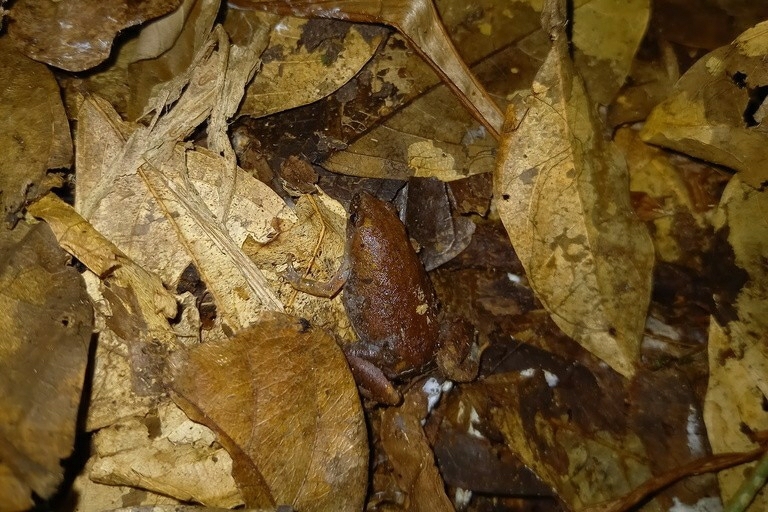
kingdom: Animalia
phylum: Chordata
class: Amphibia
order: Anura
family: Microhylidae
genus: Chiasmocleis
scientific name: Chiasmocleis shudikarensis
